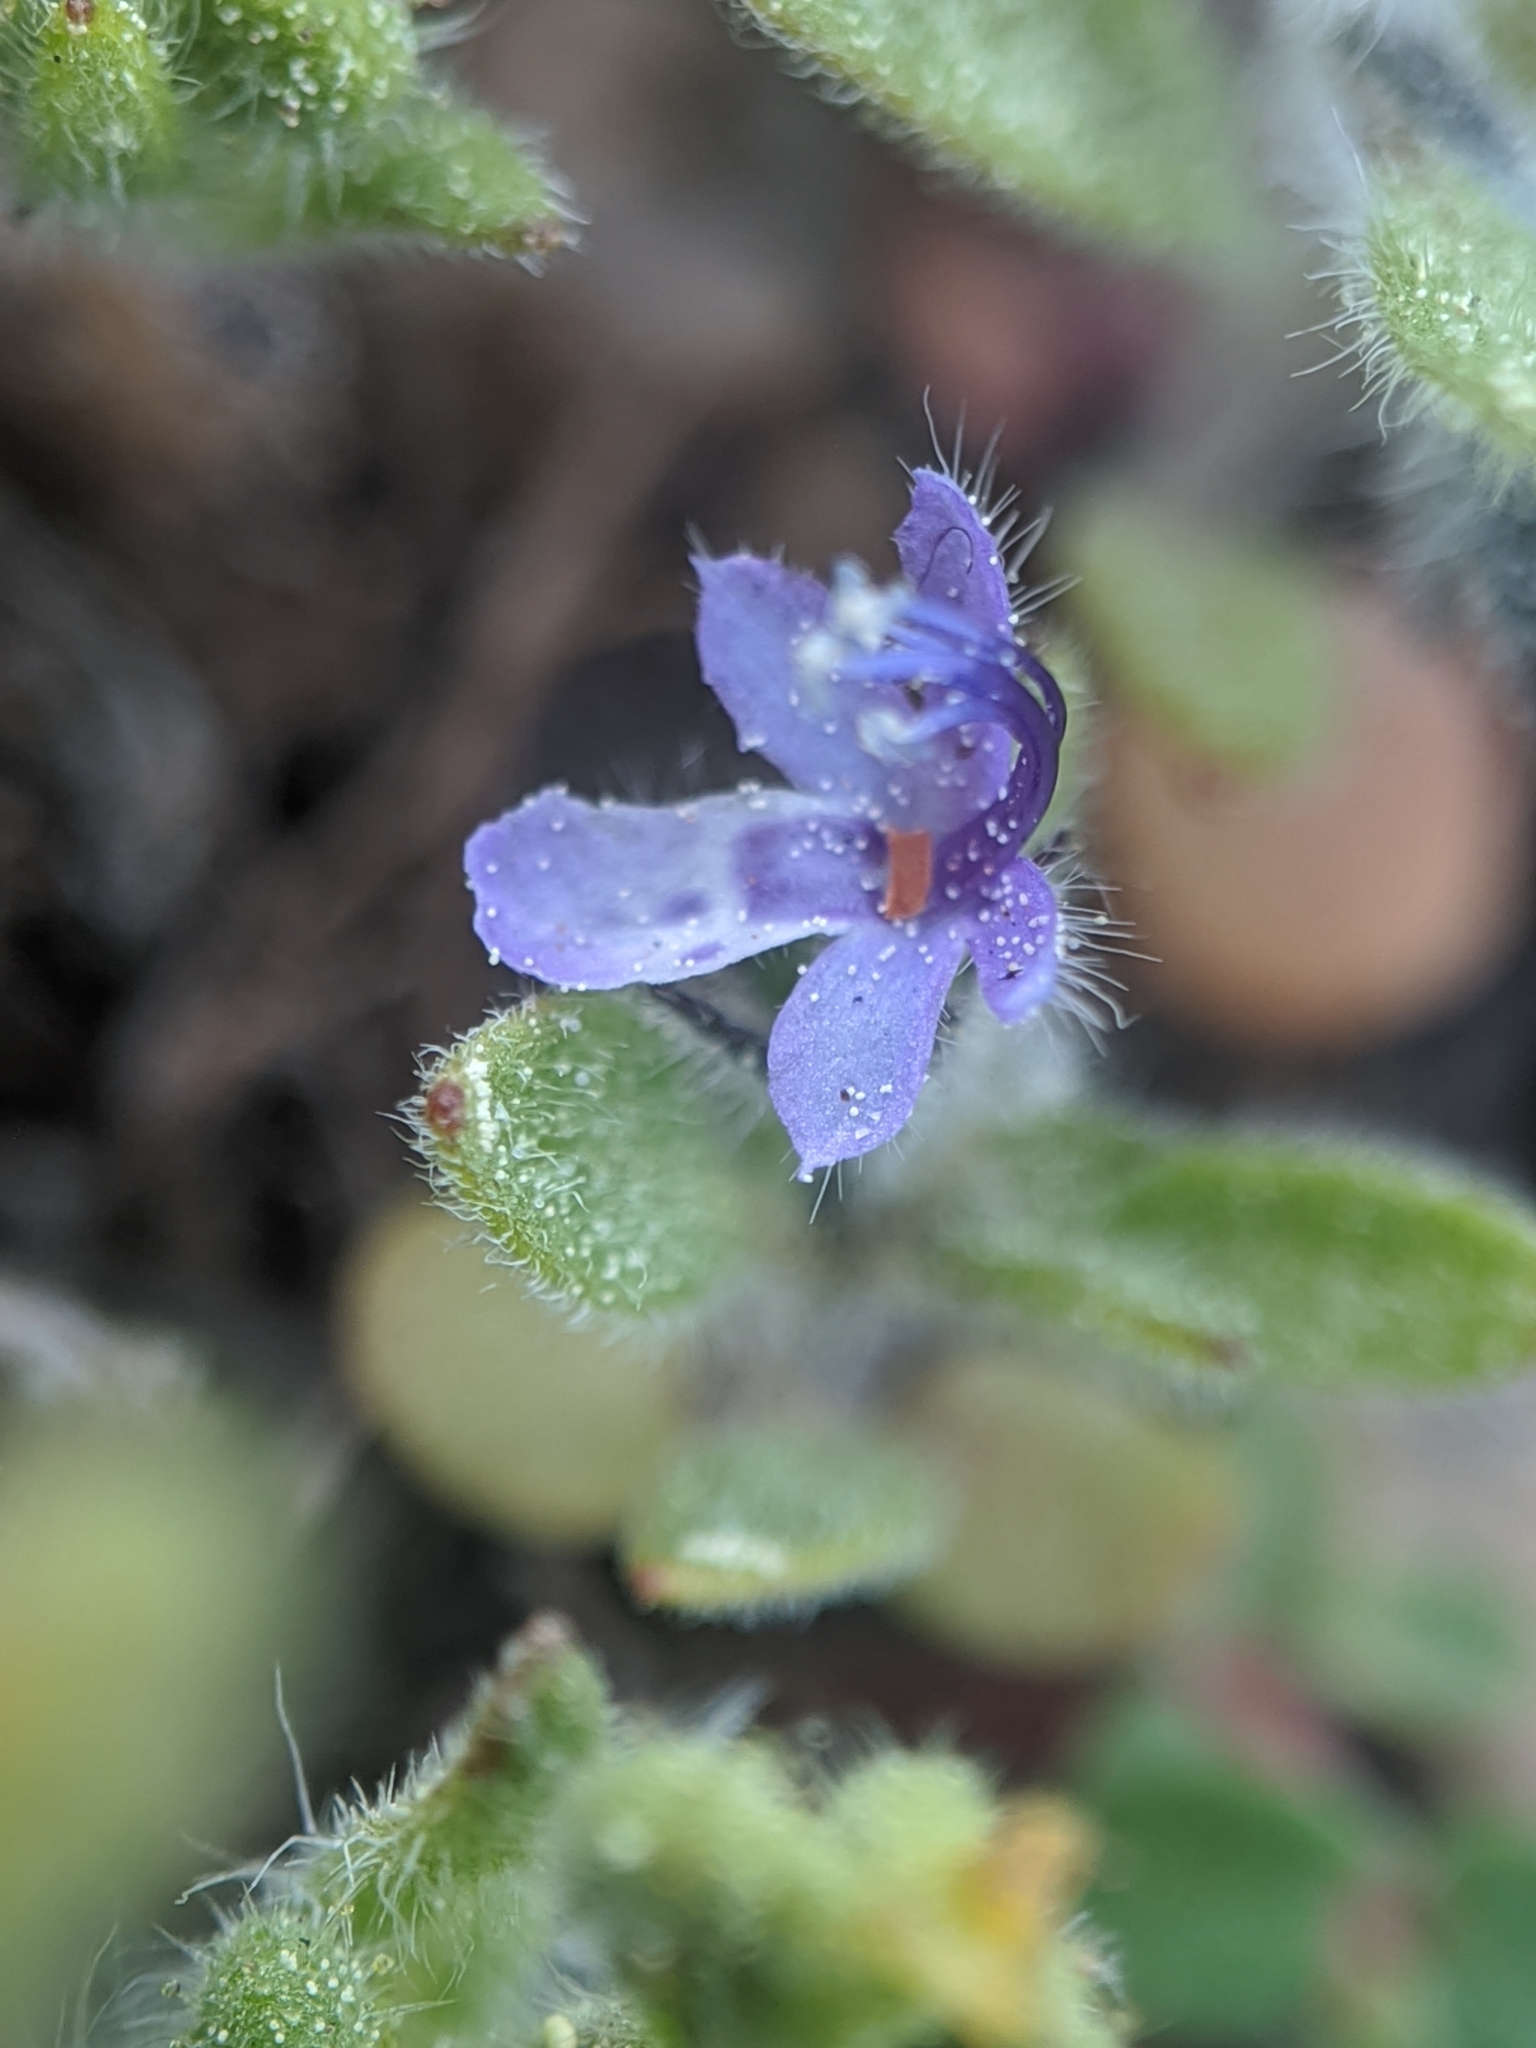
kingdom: Plantae
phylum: Tracheophyta
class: Magnoliopsida
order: Lamiales
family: Lamiaceae
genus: Trichostema
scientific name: Trichostema oblongum
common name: Mountain bluecurls
